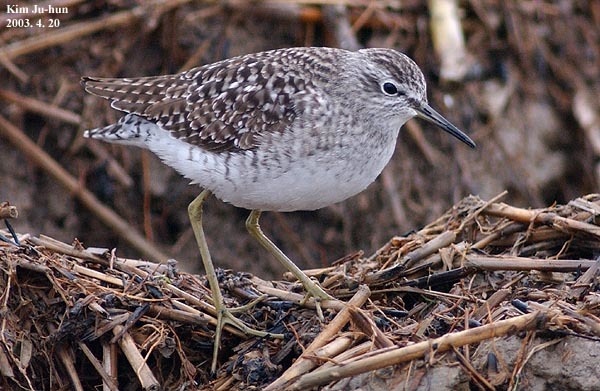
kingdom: Animalia
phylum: Chordata
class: Aves
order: Charadriiformes
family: Scolopacidae
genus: Tringa
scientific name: Tringa glareola
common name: Wood sandpiper
